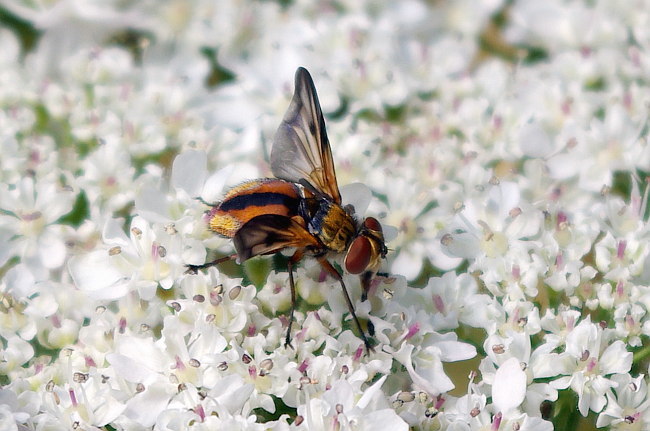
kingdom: Animalia
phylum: Arthropoda
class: Insecta
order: Diptera
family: Tachinidae
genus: Ectophasia
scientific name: Ectophasia crassipennis
